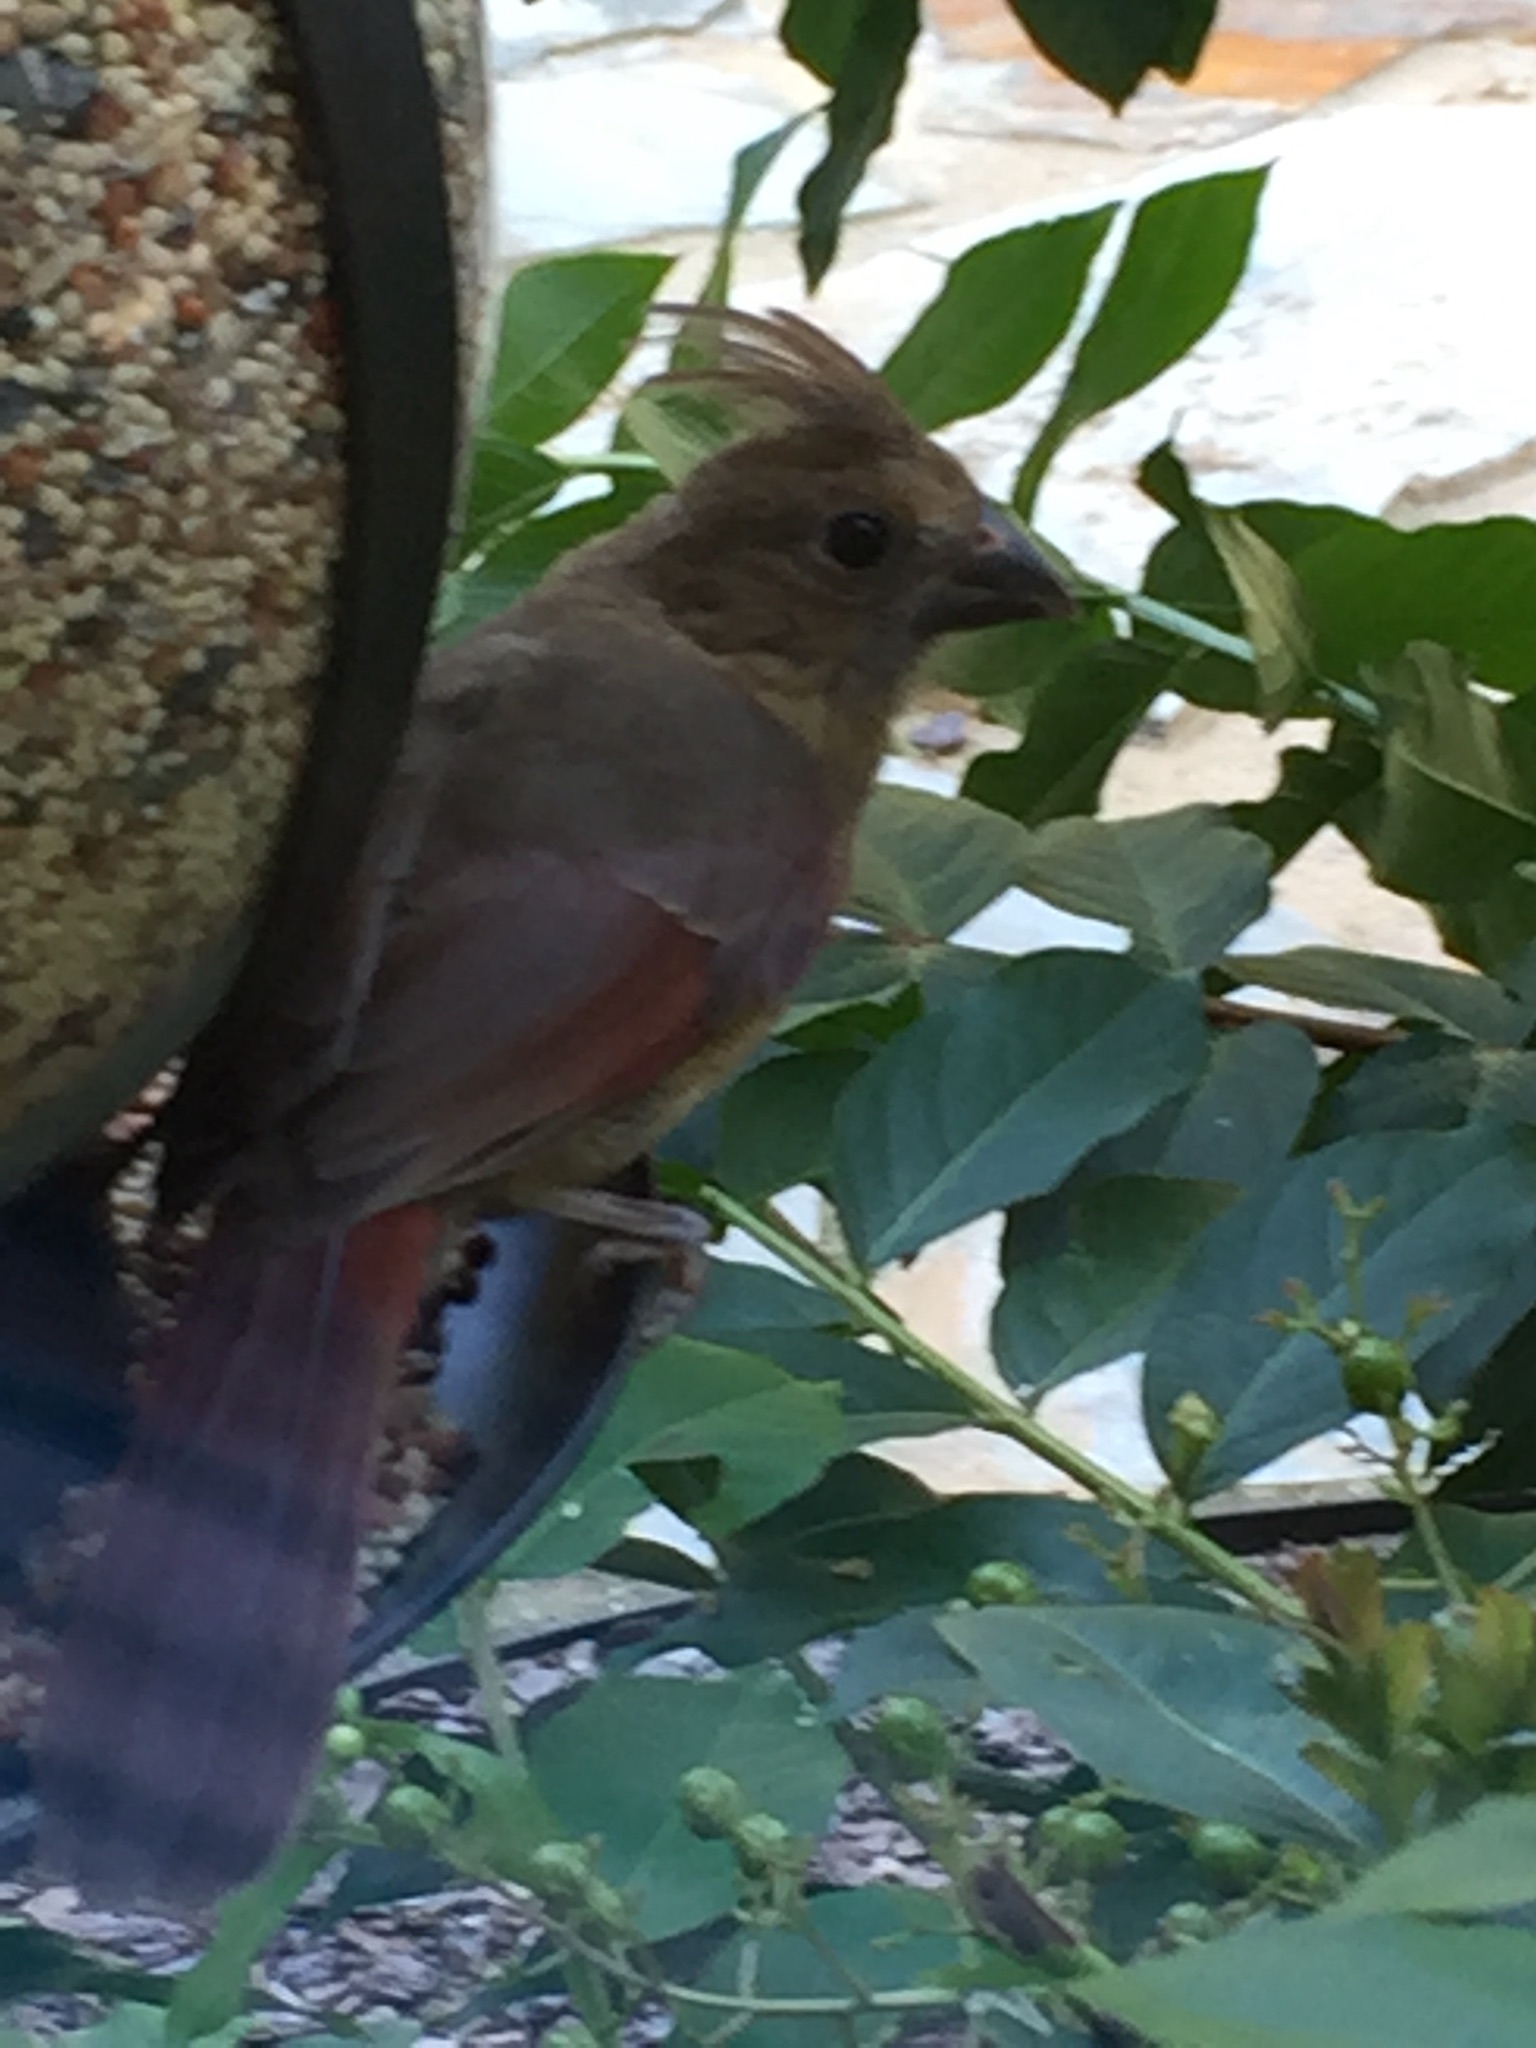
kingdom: Animalia
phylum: Chordata
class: Aves
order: Passeriformes
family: Cardinalidae
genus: Cardinalis
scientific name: Cardinalis cardinalis
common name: Northern cardinal
